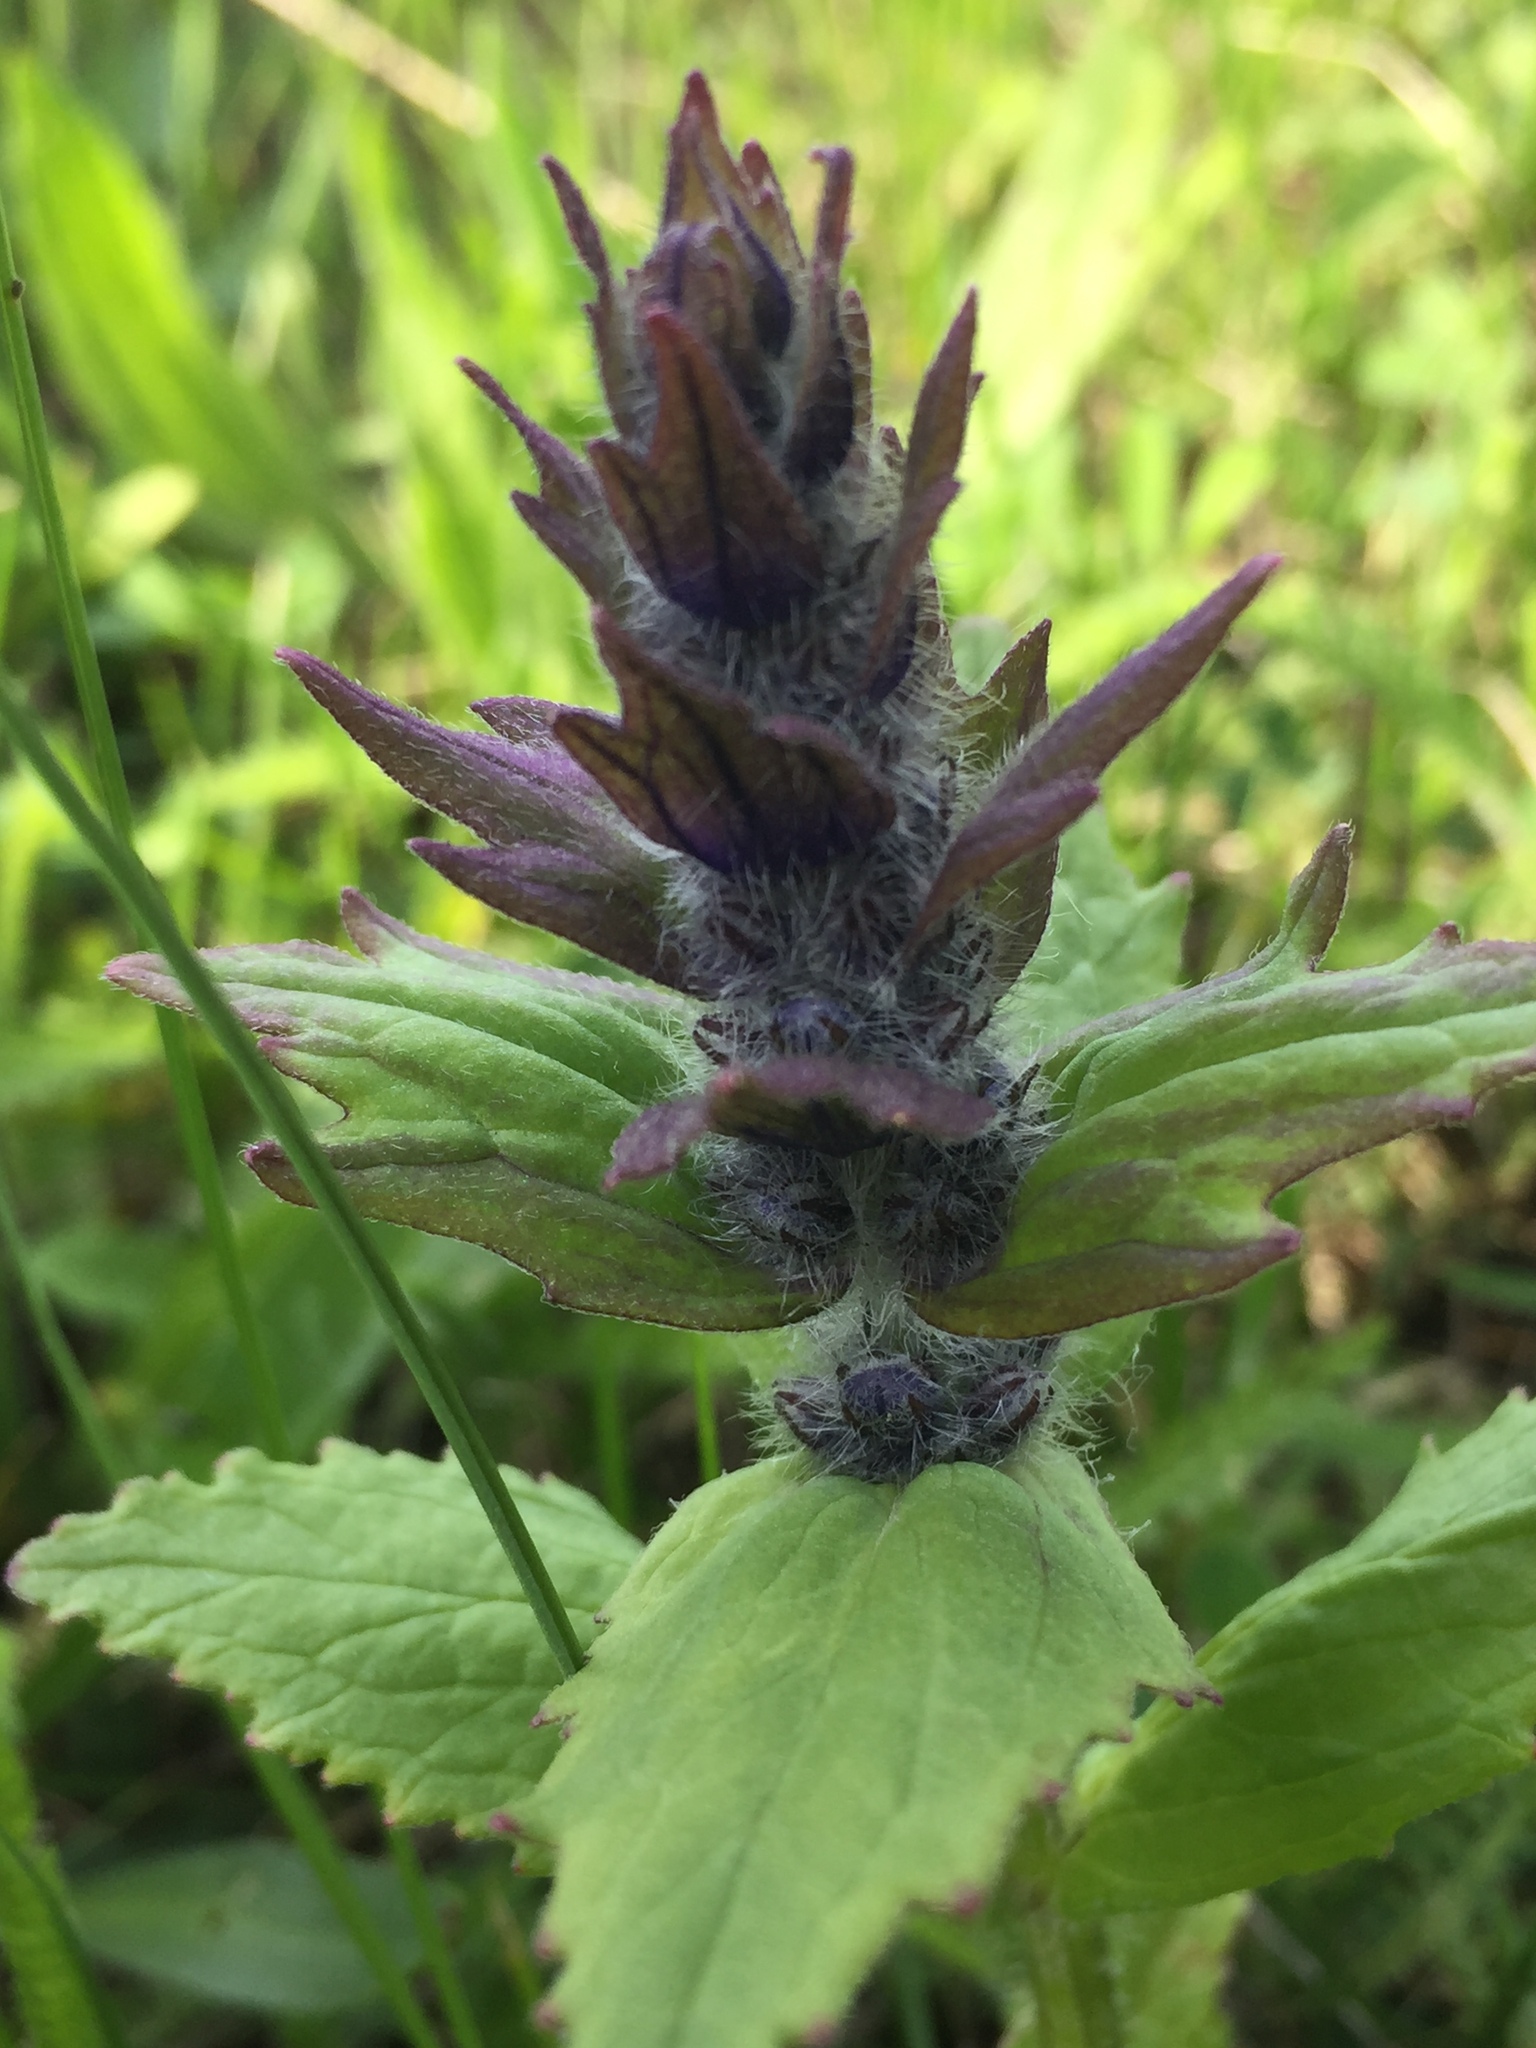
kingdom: Plantae
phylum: Tracheophyta
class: Magnoliopsida
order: Lamiales
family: Lamiaceae
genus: Ajuga
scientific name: Ajuga genevensis
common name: Blue bugle
